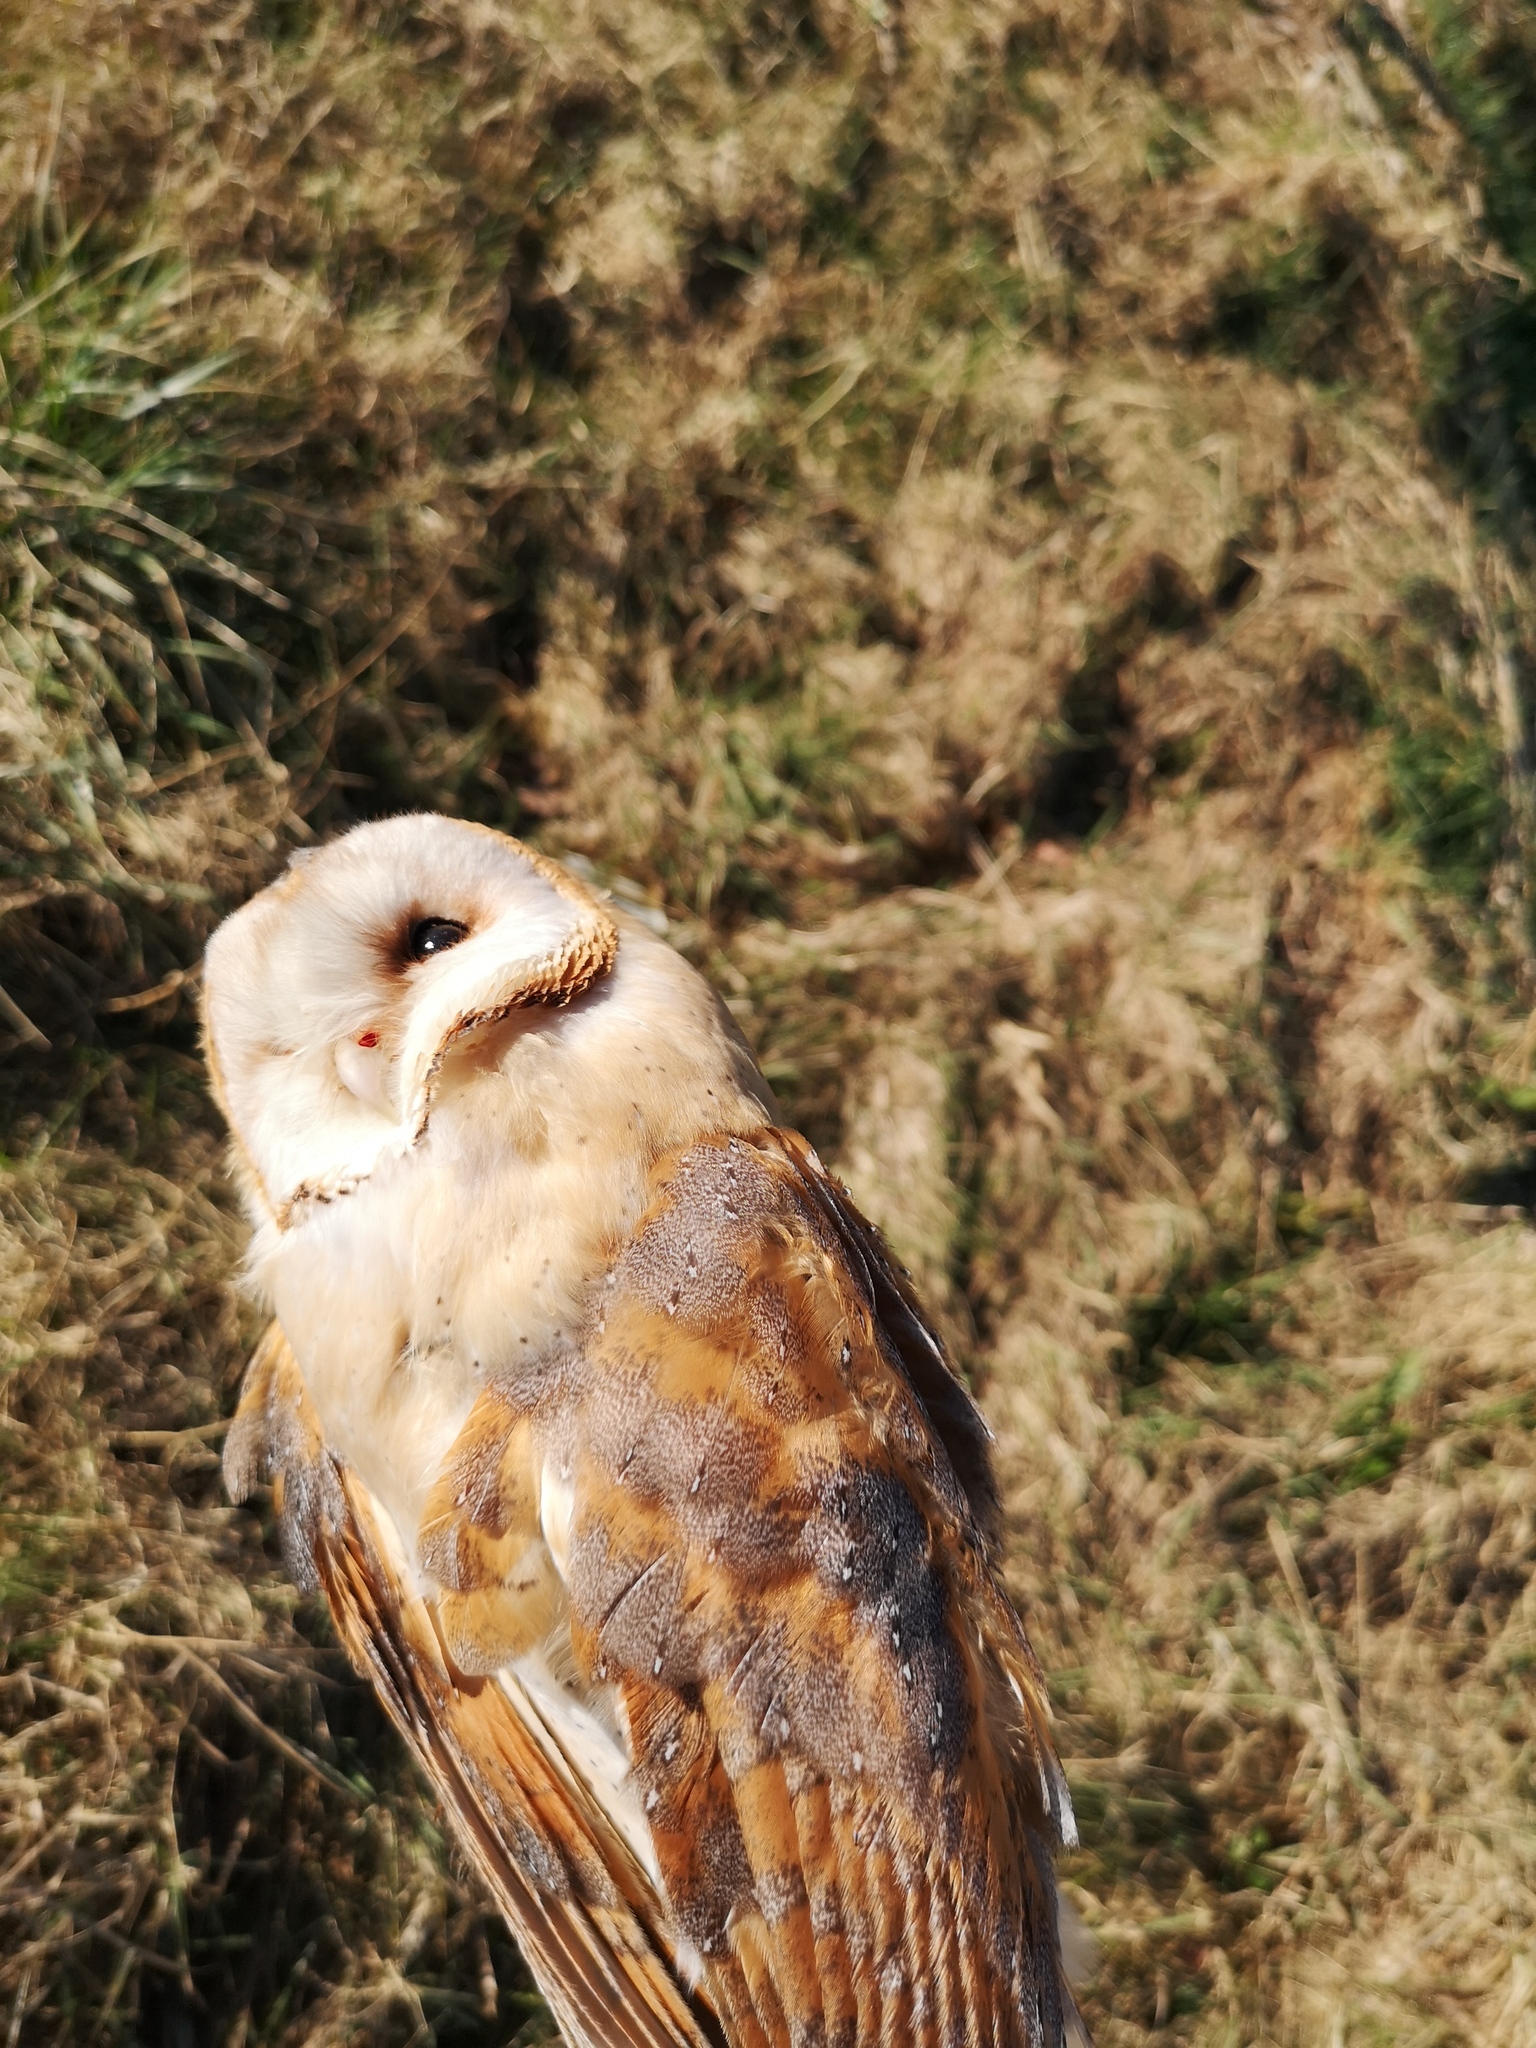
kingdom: Animalia
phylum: Chordata
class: Aves
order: Strigiformes
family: Tytonidae
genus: Tyto
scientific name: Tyto alba
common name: Barn owl
